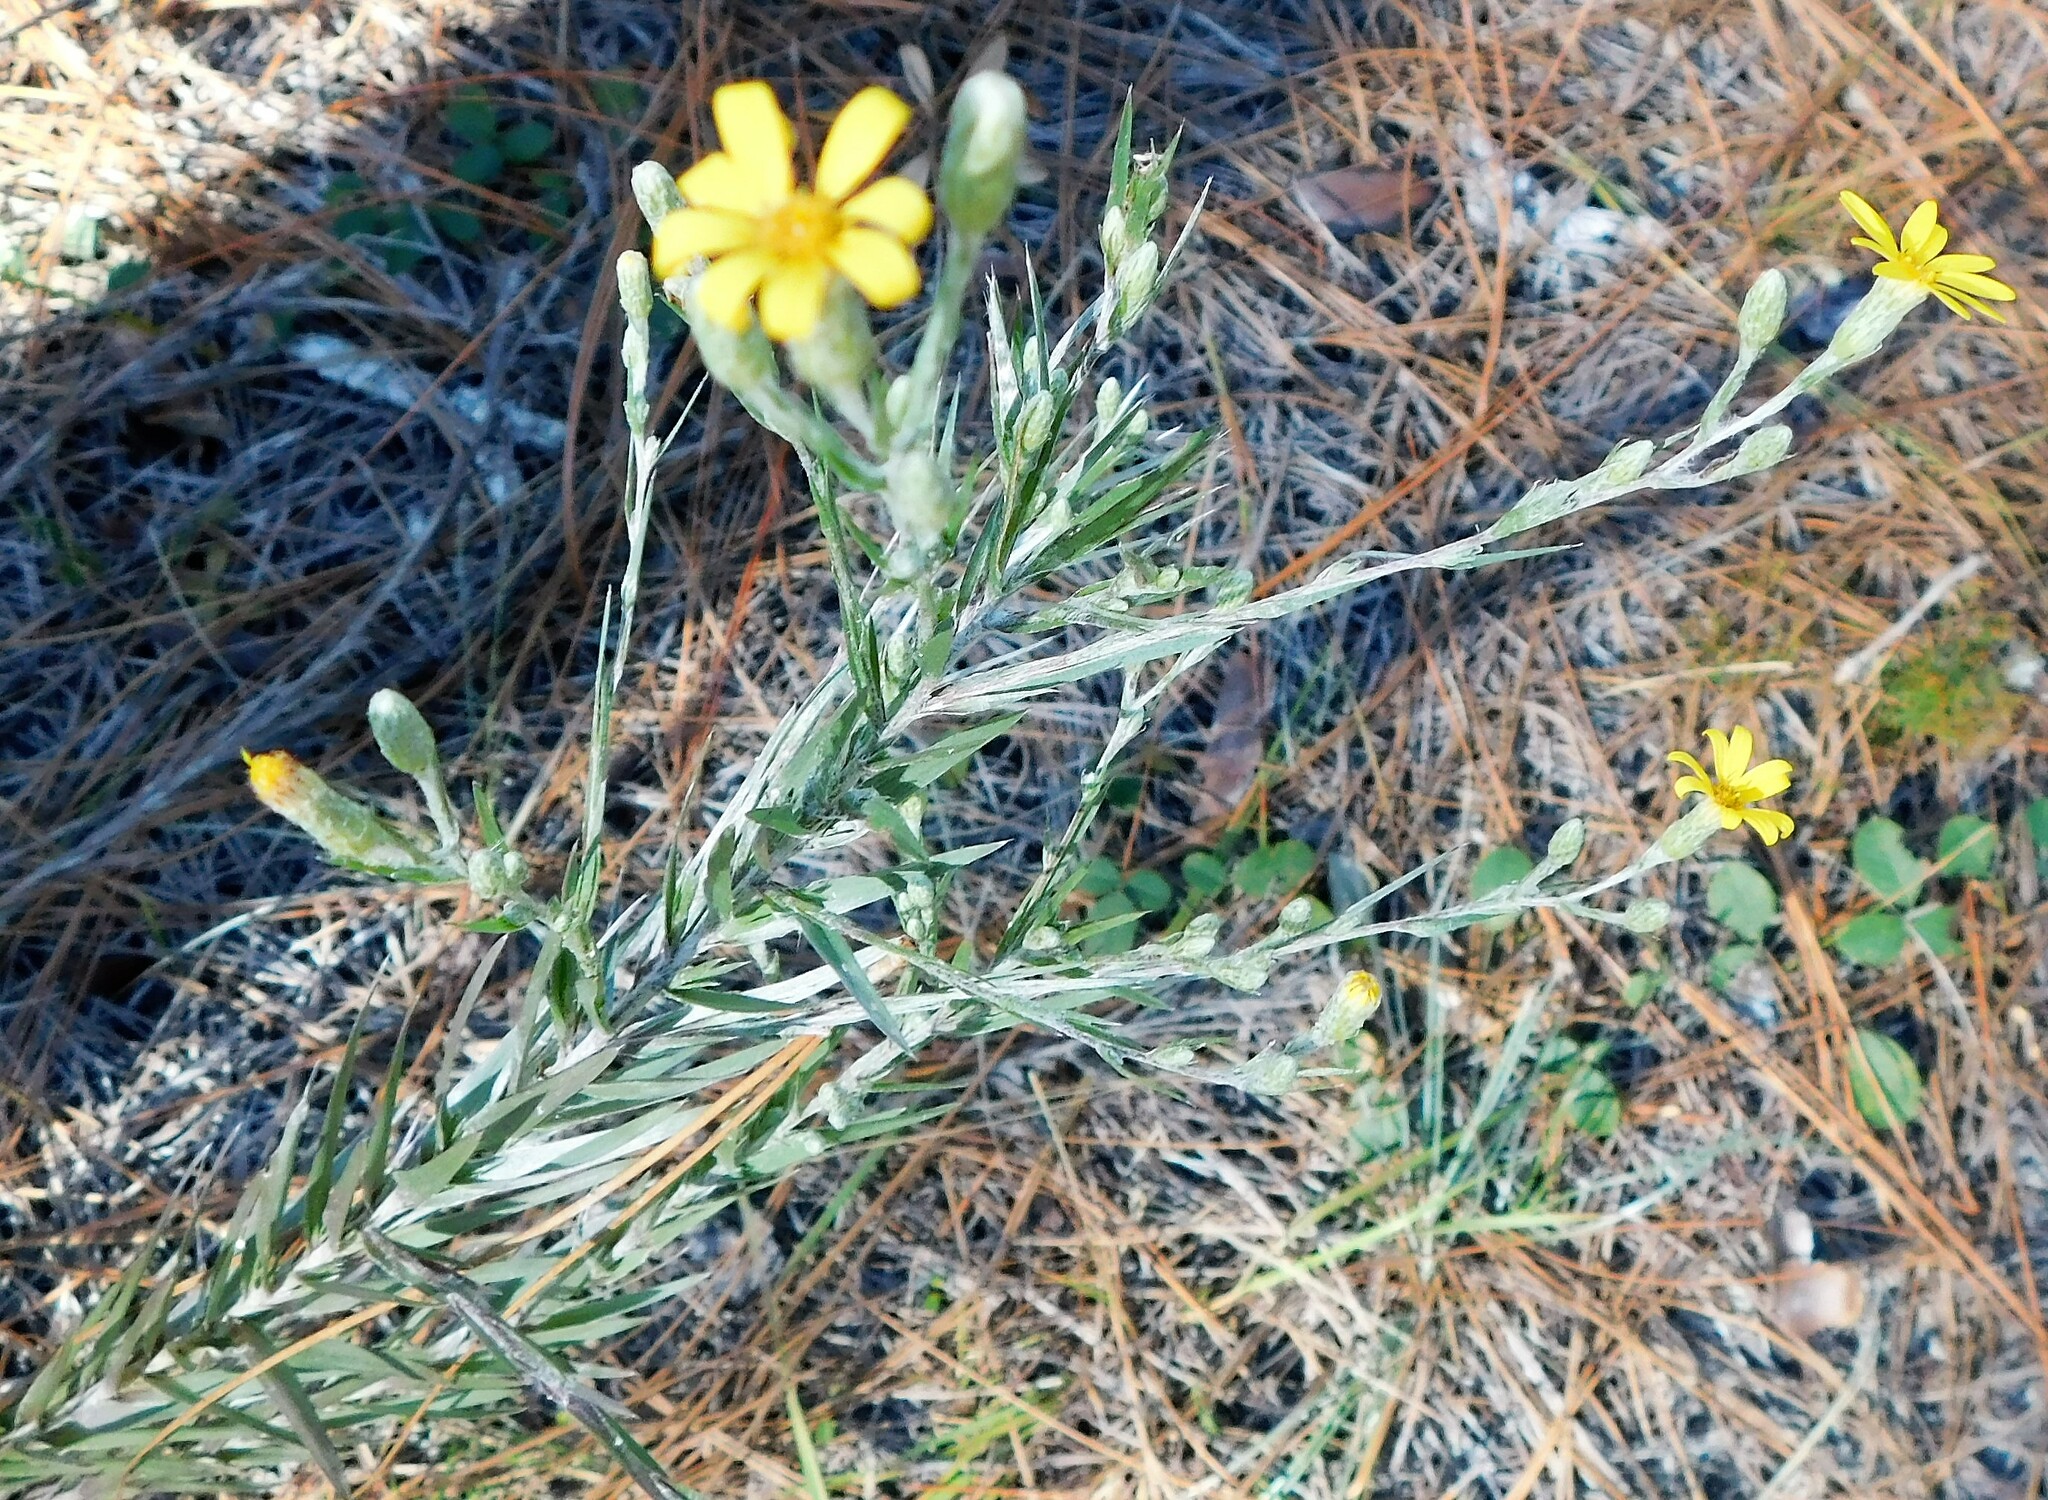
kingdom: Plantae
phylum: Tracheophyta
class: Magnoliopsida
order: Asterales
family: Asteraceae
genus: Pityopsis
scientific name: Pityopsis graminifolia
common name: Grass-leaf golden-aster
